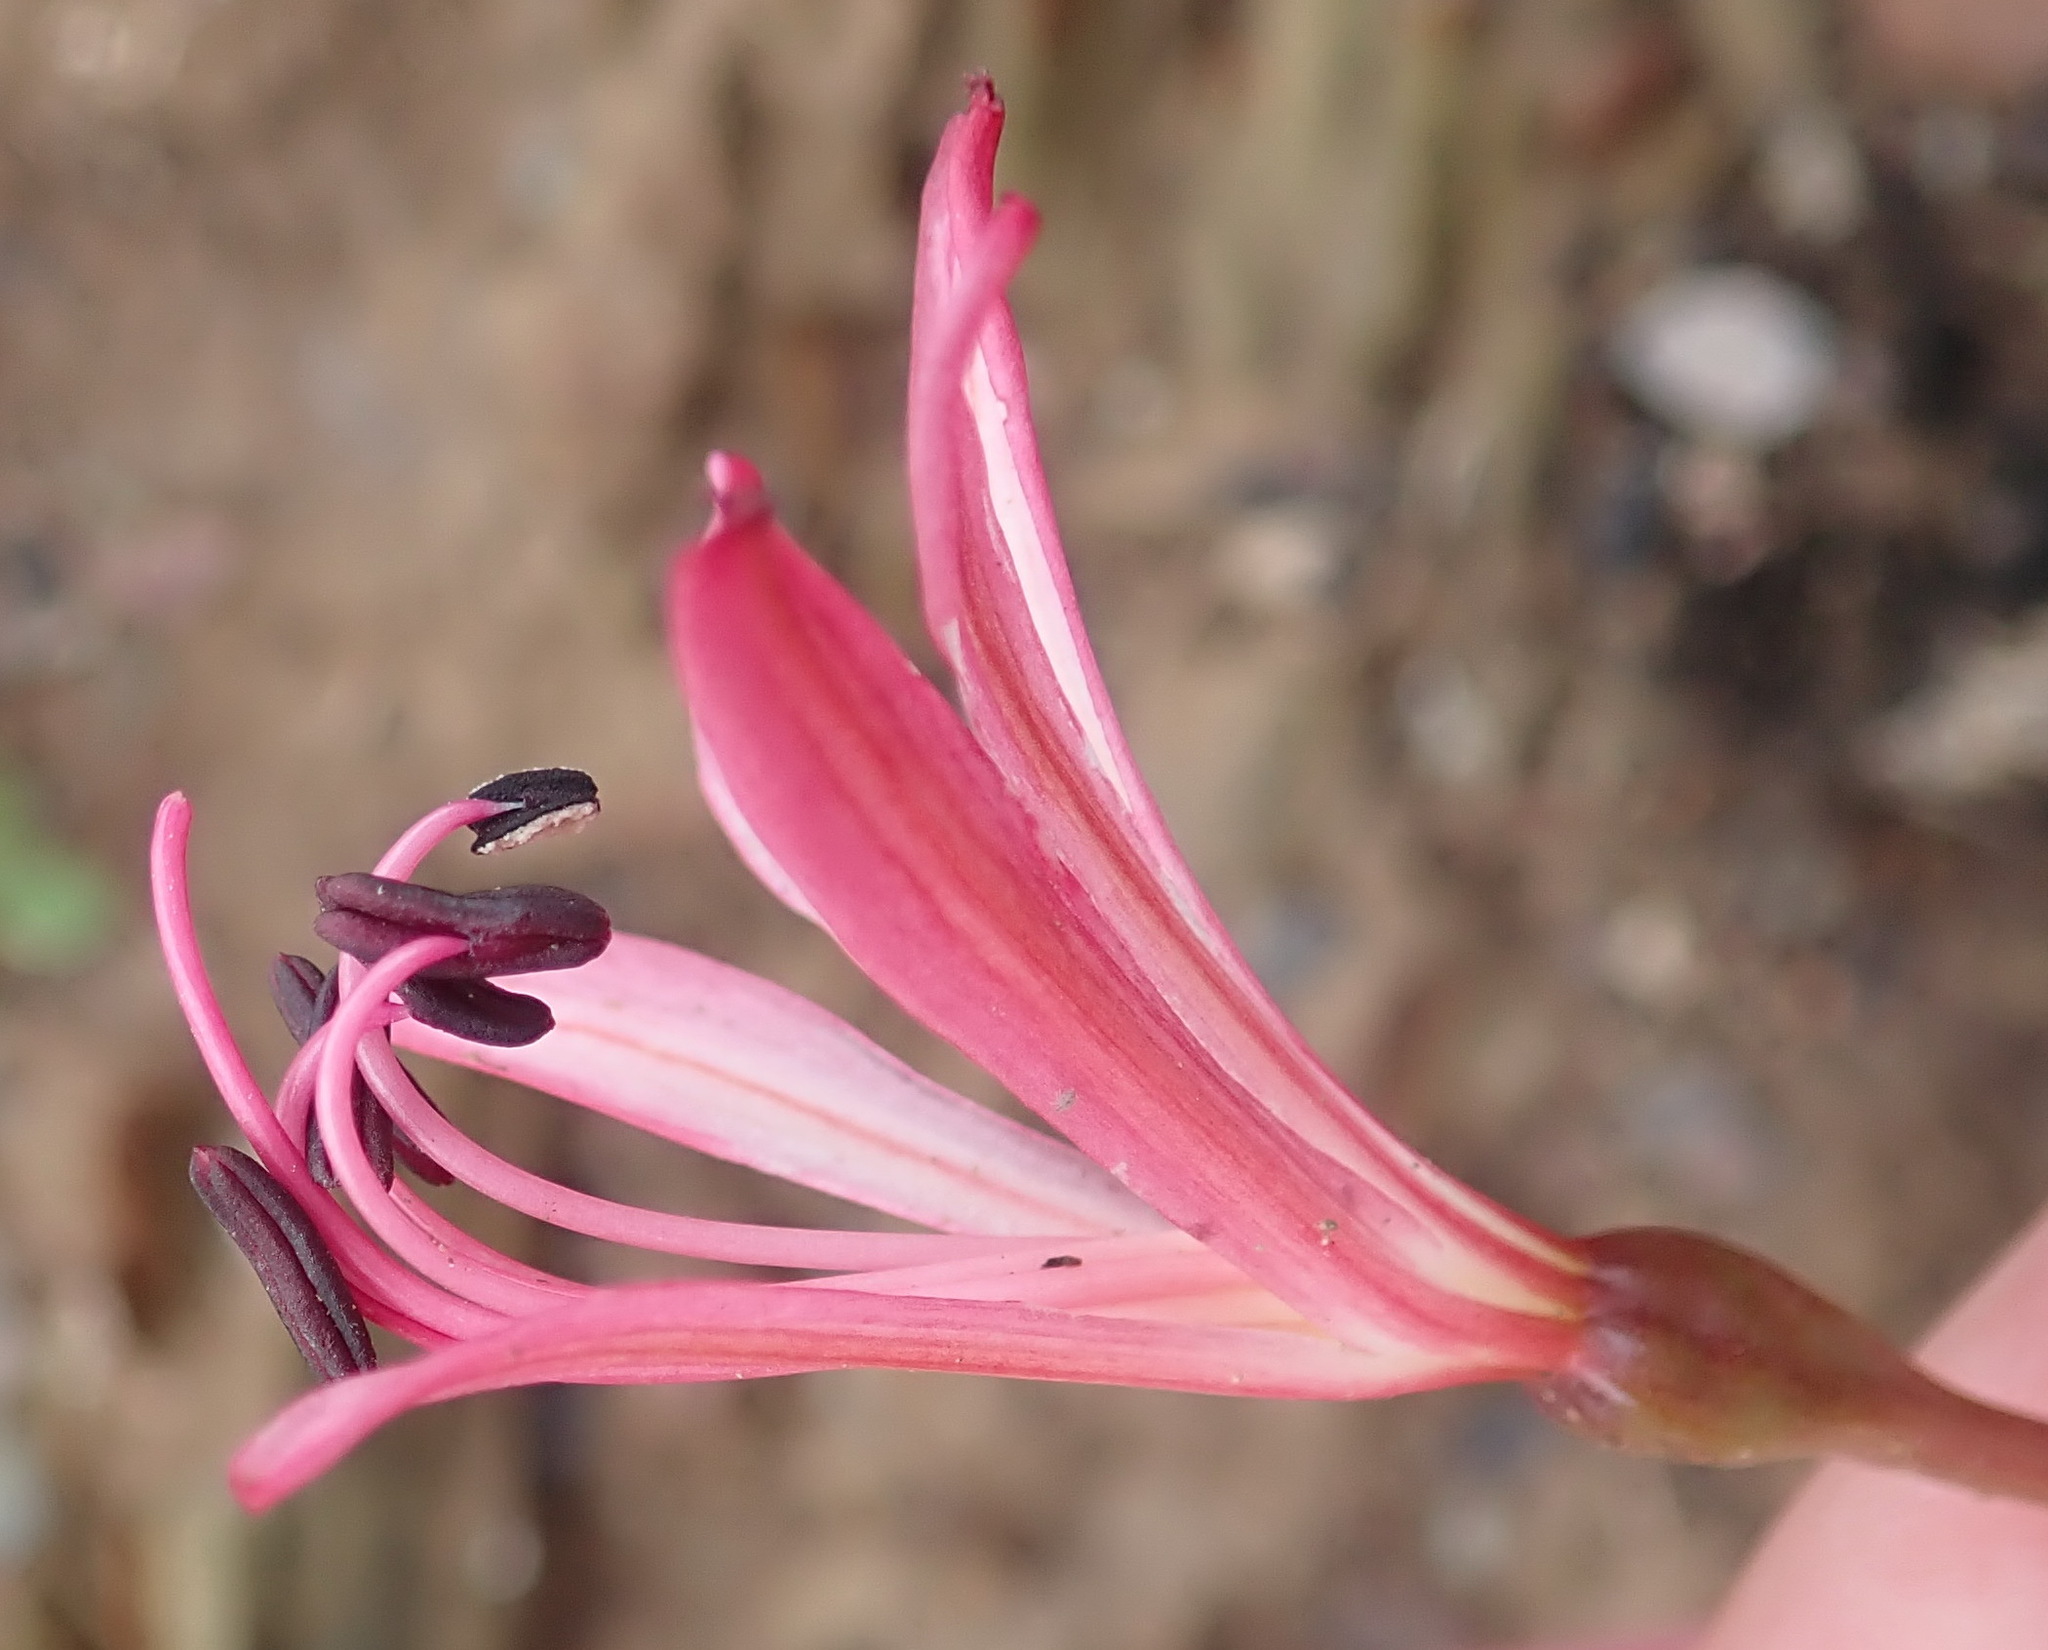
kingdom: Plantae
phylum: Tracheophyta
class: Liliopsida
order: Asparagales
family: Amaryllidaceae
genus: Brunsvigia
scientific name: Brunsvigia nervosa
